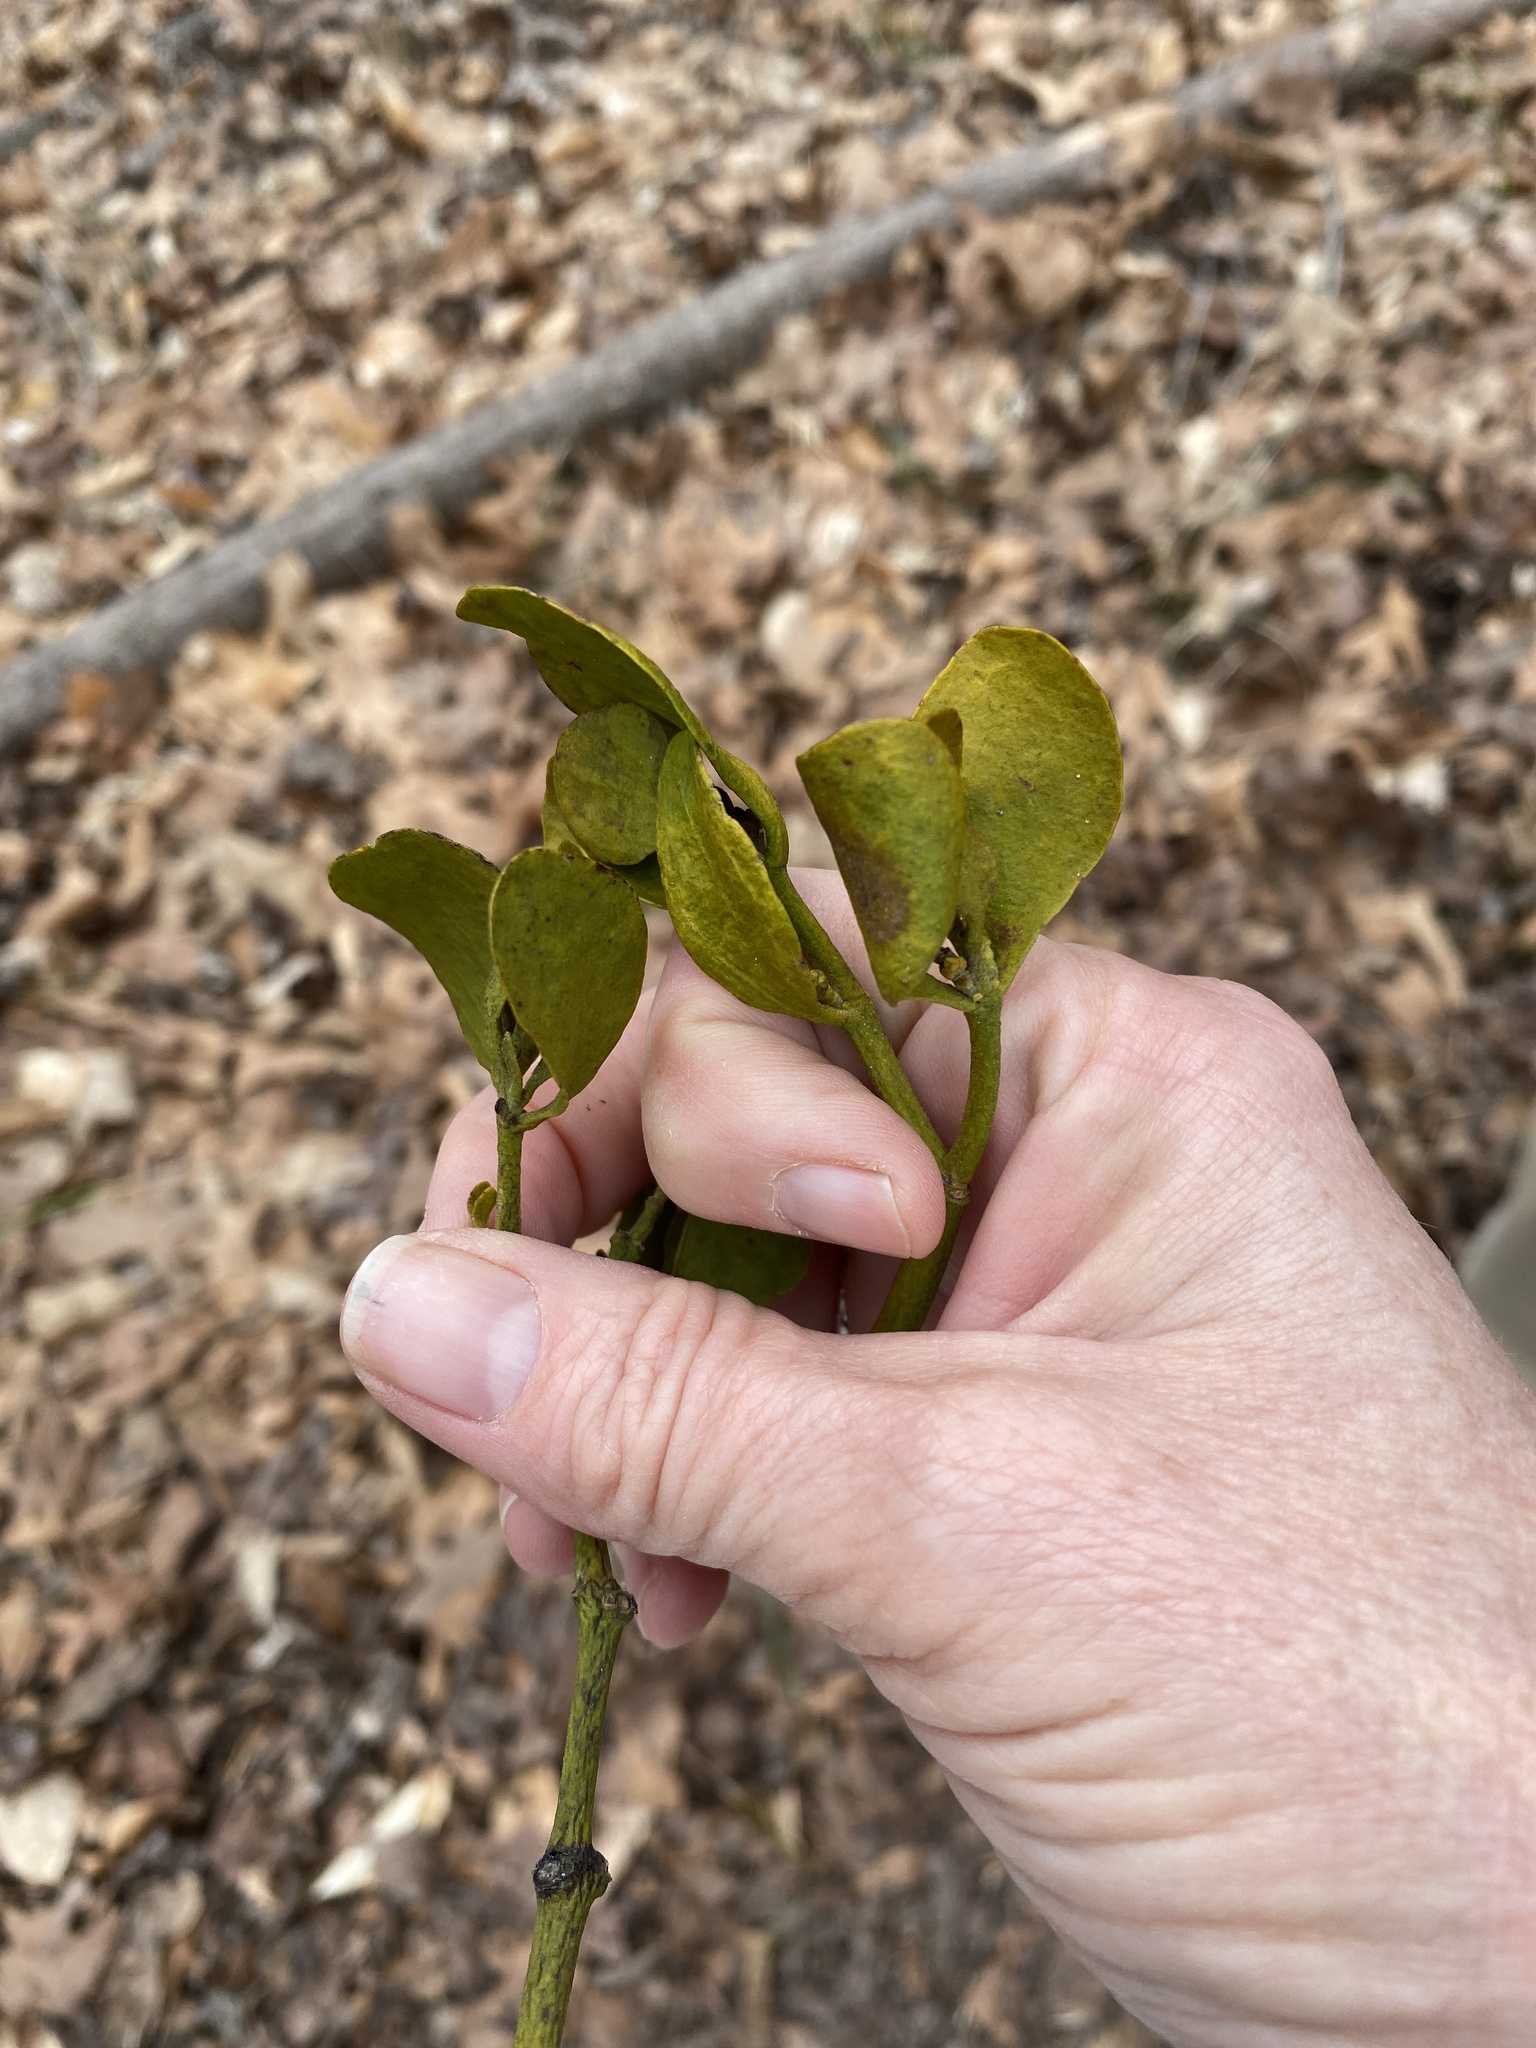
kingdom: Plantae
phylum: Tracheophyta
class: Magnoliopsida
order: Santalales
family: Viscaceae
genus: Phoradendron
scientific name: Phoradendron leucarpum
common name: Pacific mistletoe
